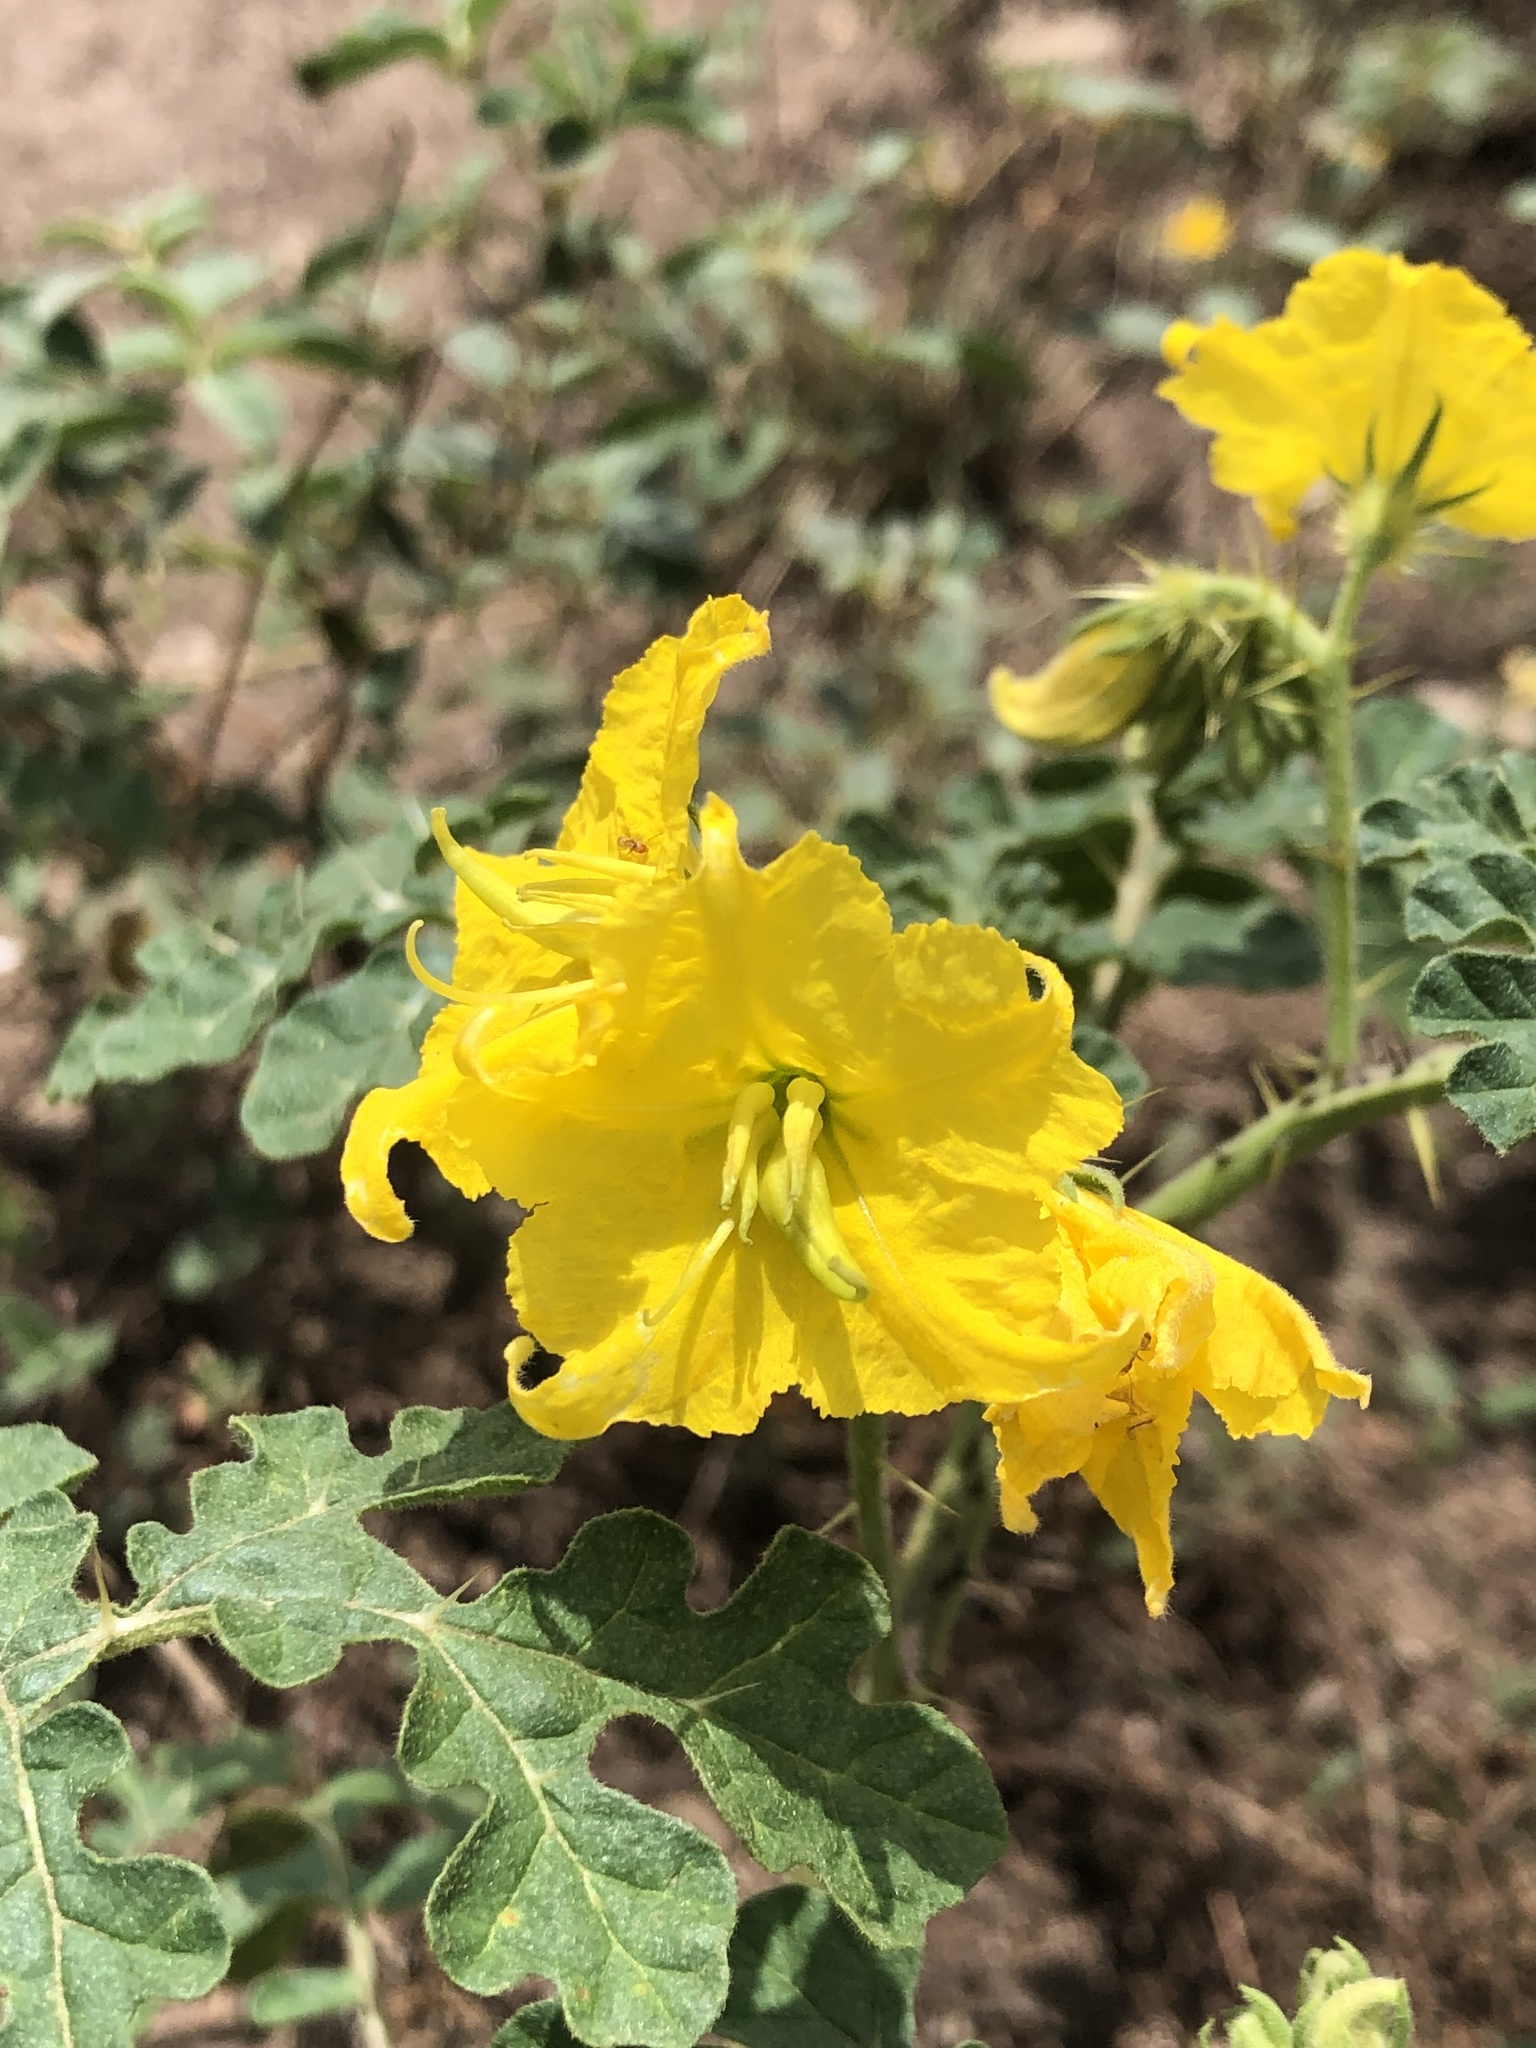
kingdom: Plantae
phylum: Tracheophyta
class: Magnoliopsida
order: Solanales
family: Solanaceae
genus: Solanum
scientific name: Solanum angustifolium
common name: Buffalobur nightshade
